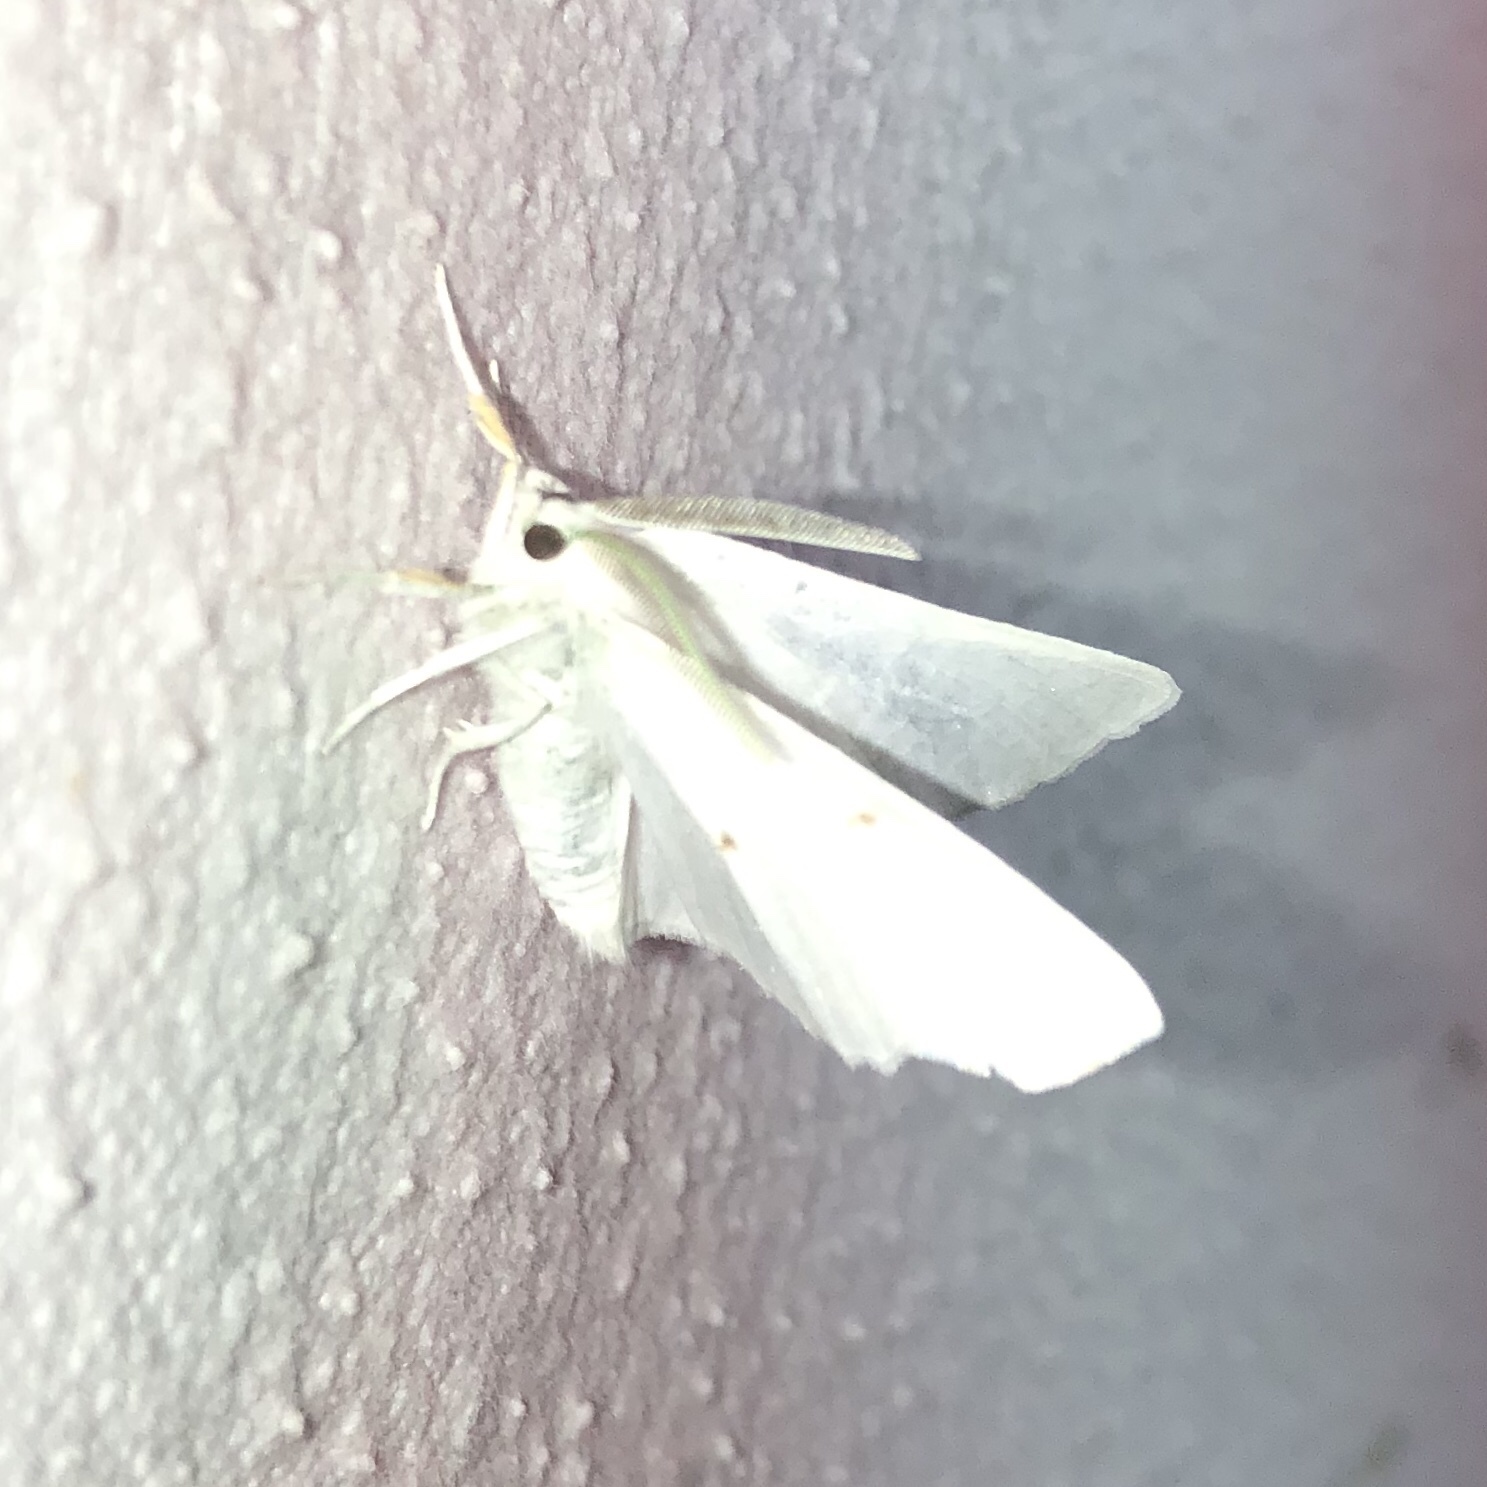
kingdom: Animalia
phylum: Arthropoda
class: Insecta
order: Lepidoptera
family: Geometridae
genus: Ennomos
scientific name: Ennomos subsignaria
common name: Elm spanworm
